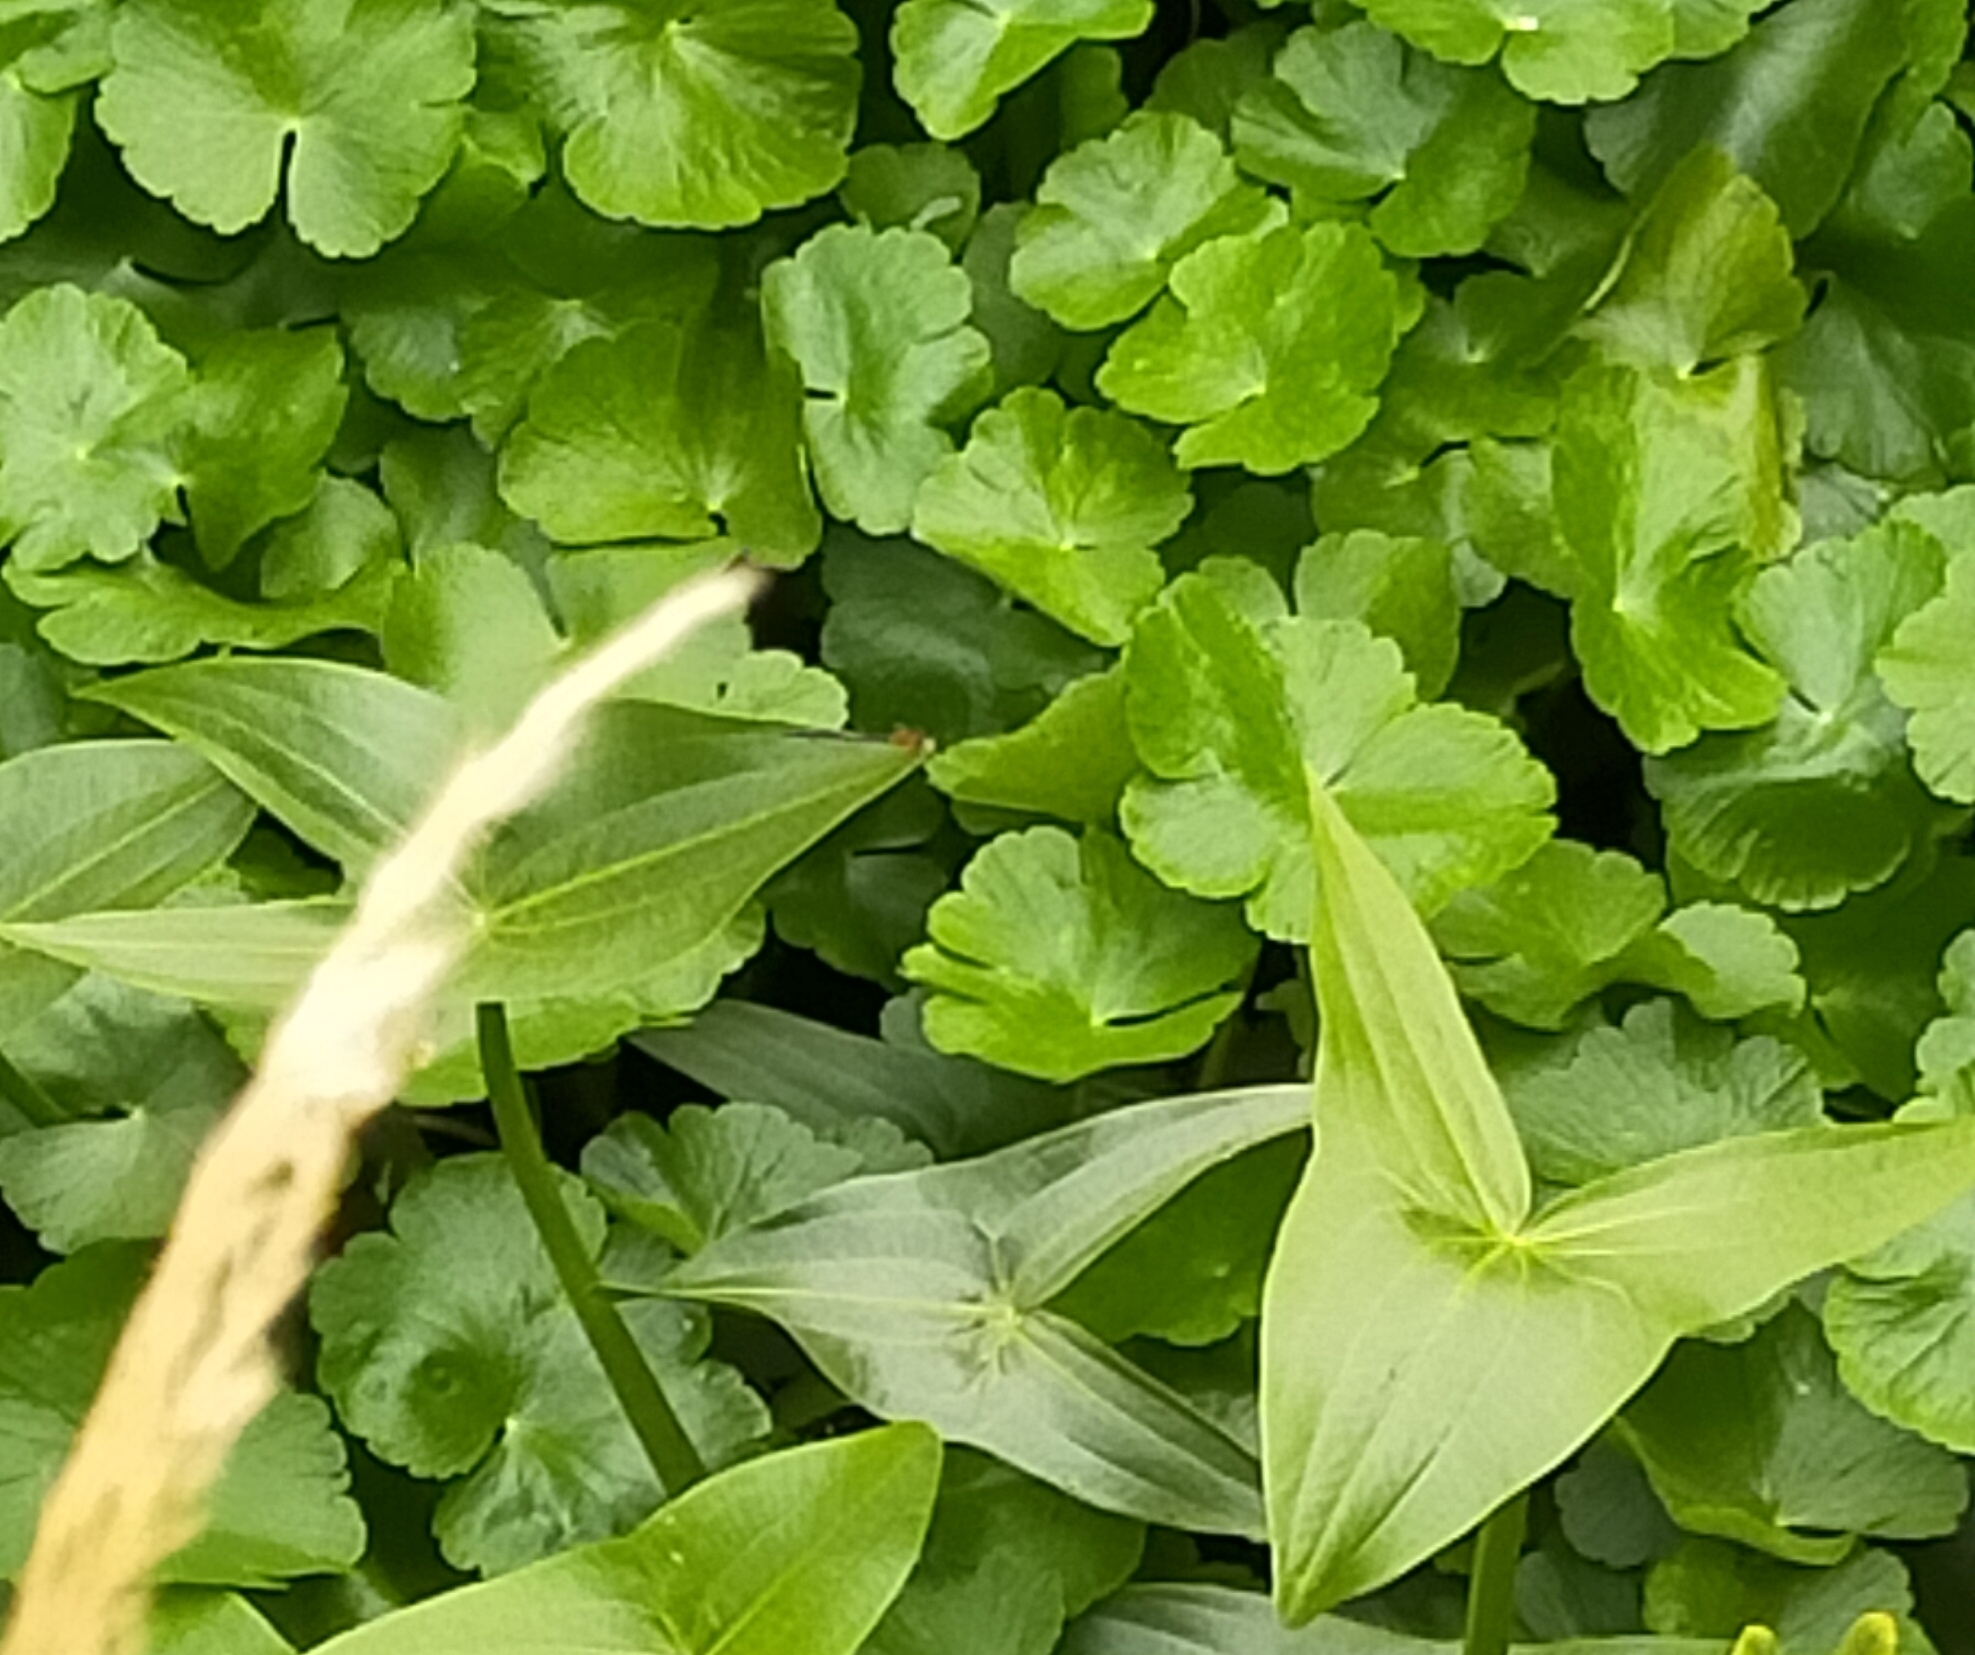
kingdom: Plantae
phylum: Tracheophyta
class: Magnoliopsida
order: Apiales
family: Araliaceae
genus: Hydrocotyle
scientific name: Hydrocotyle ranunculoides
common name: Floating pennywort
